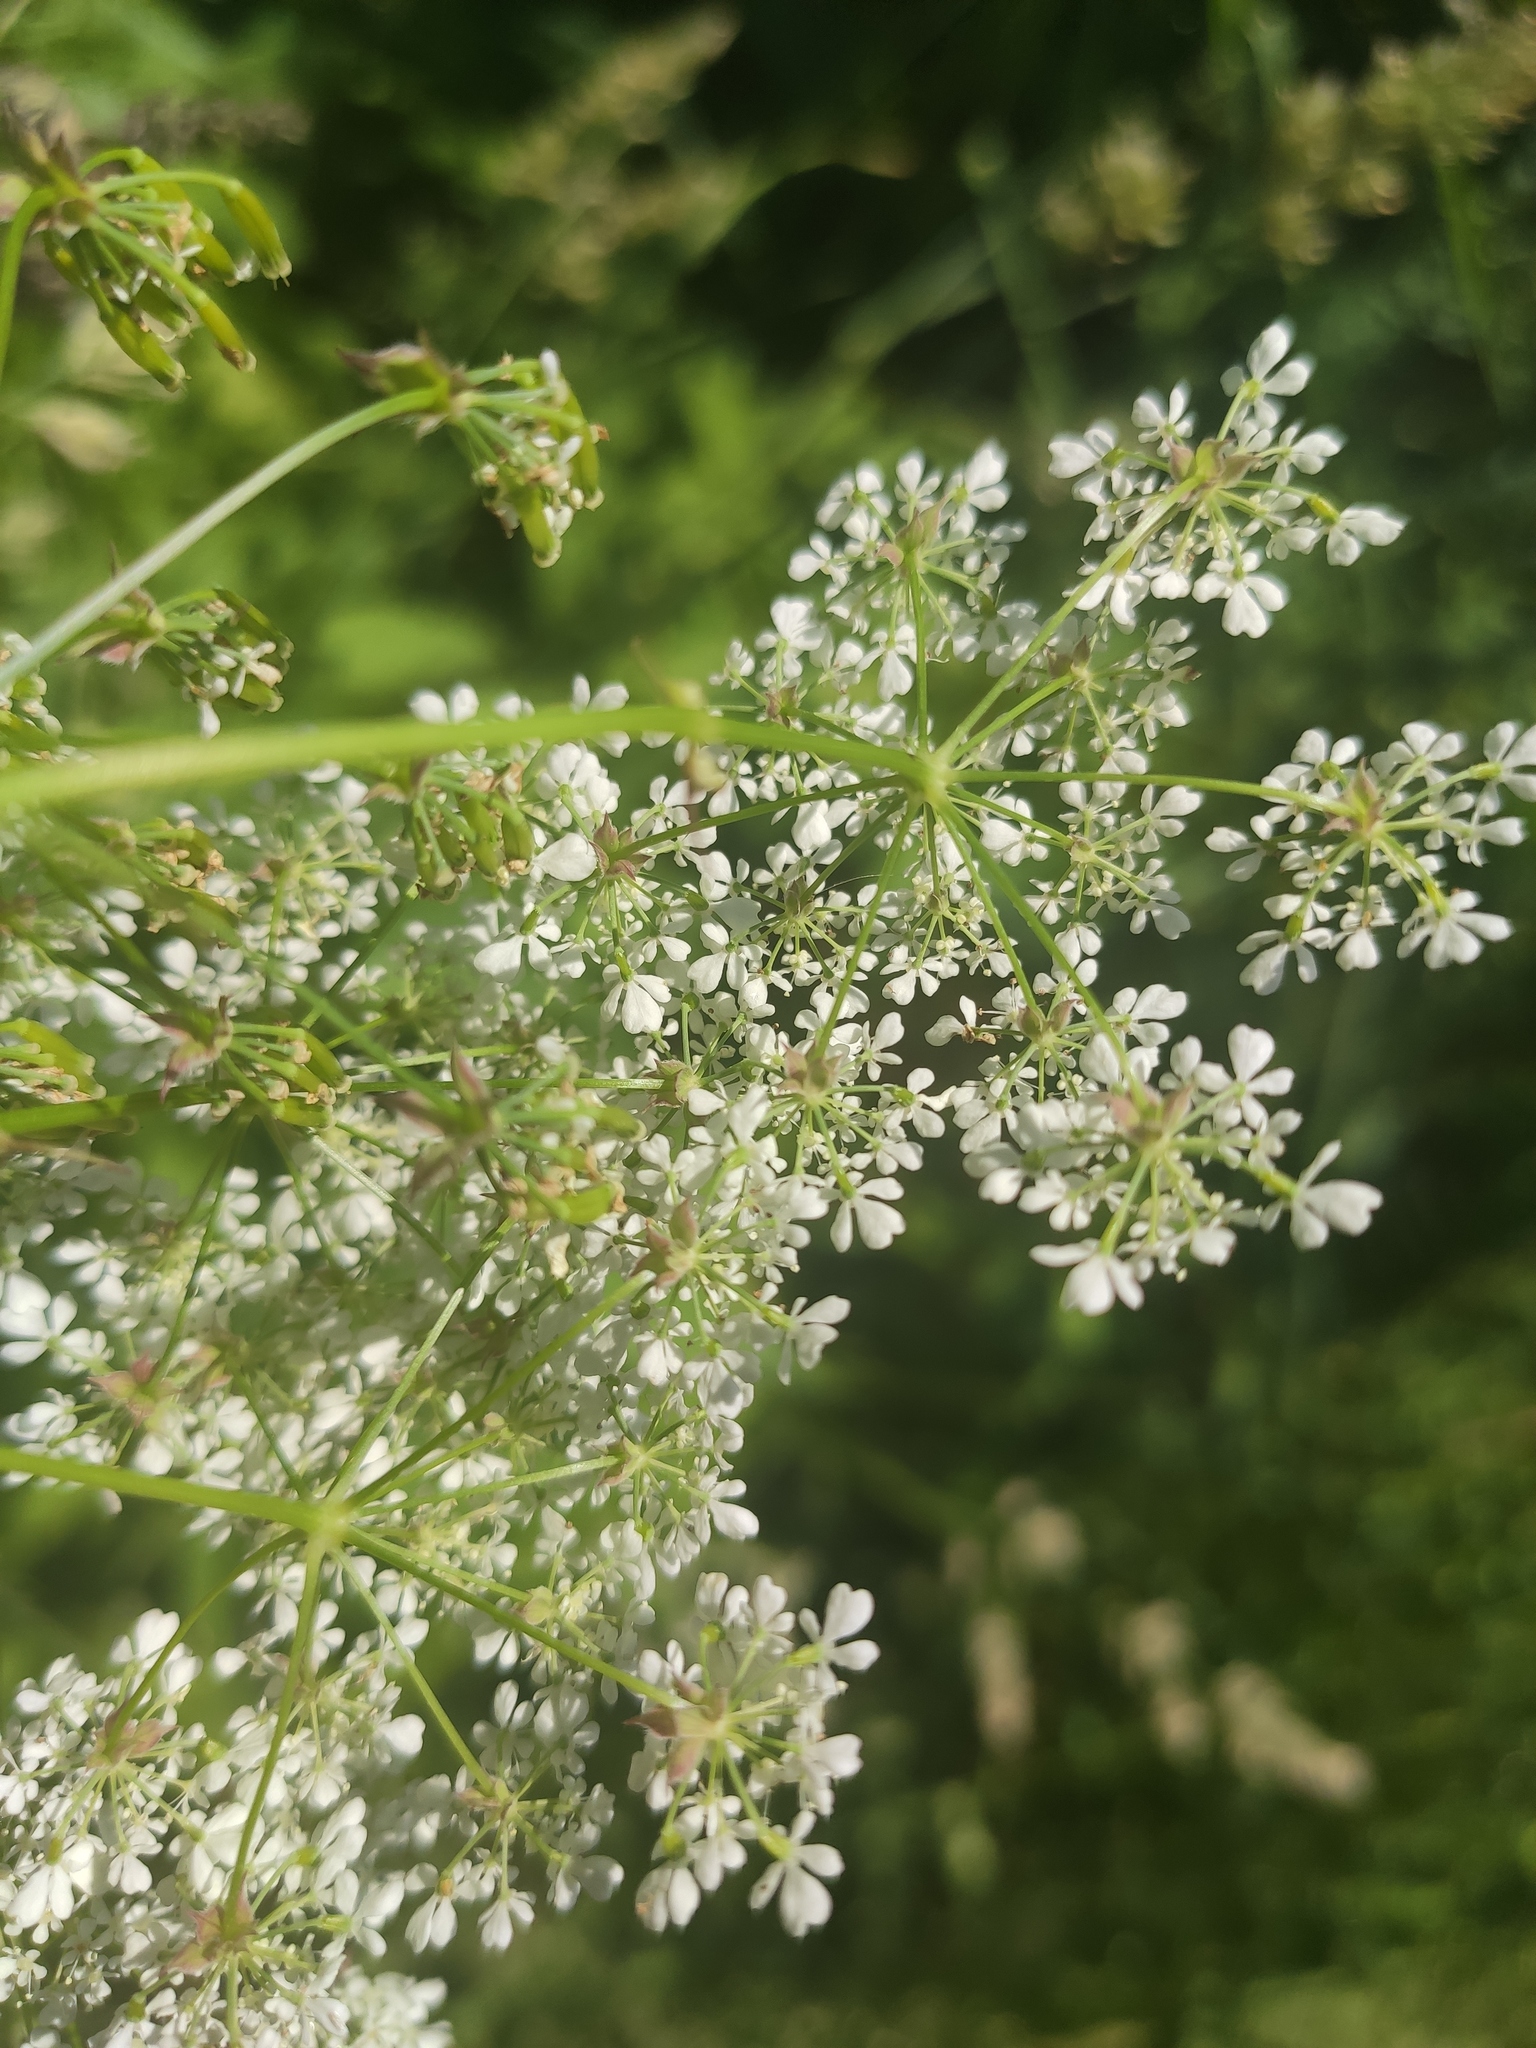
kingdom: Plantae
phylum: Tracheophyta
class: Magnoliopsida
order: Apiales
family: Apiaceae
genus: Anthriscus
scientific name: Anthriscus sylvestris
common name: Cow parsley
